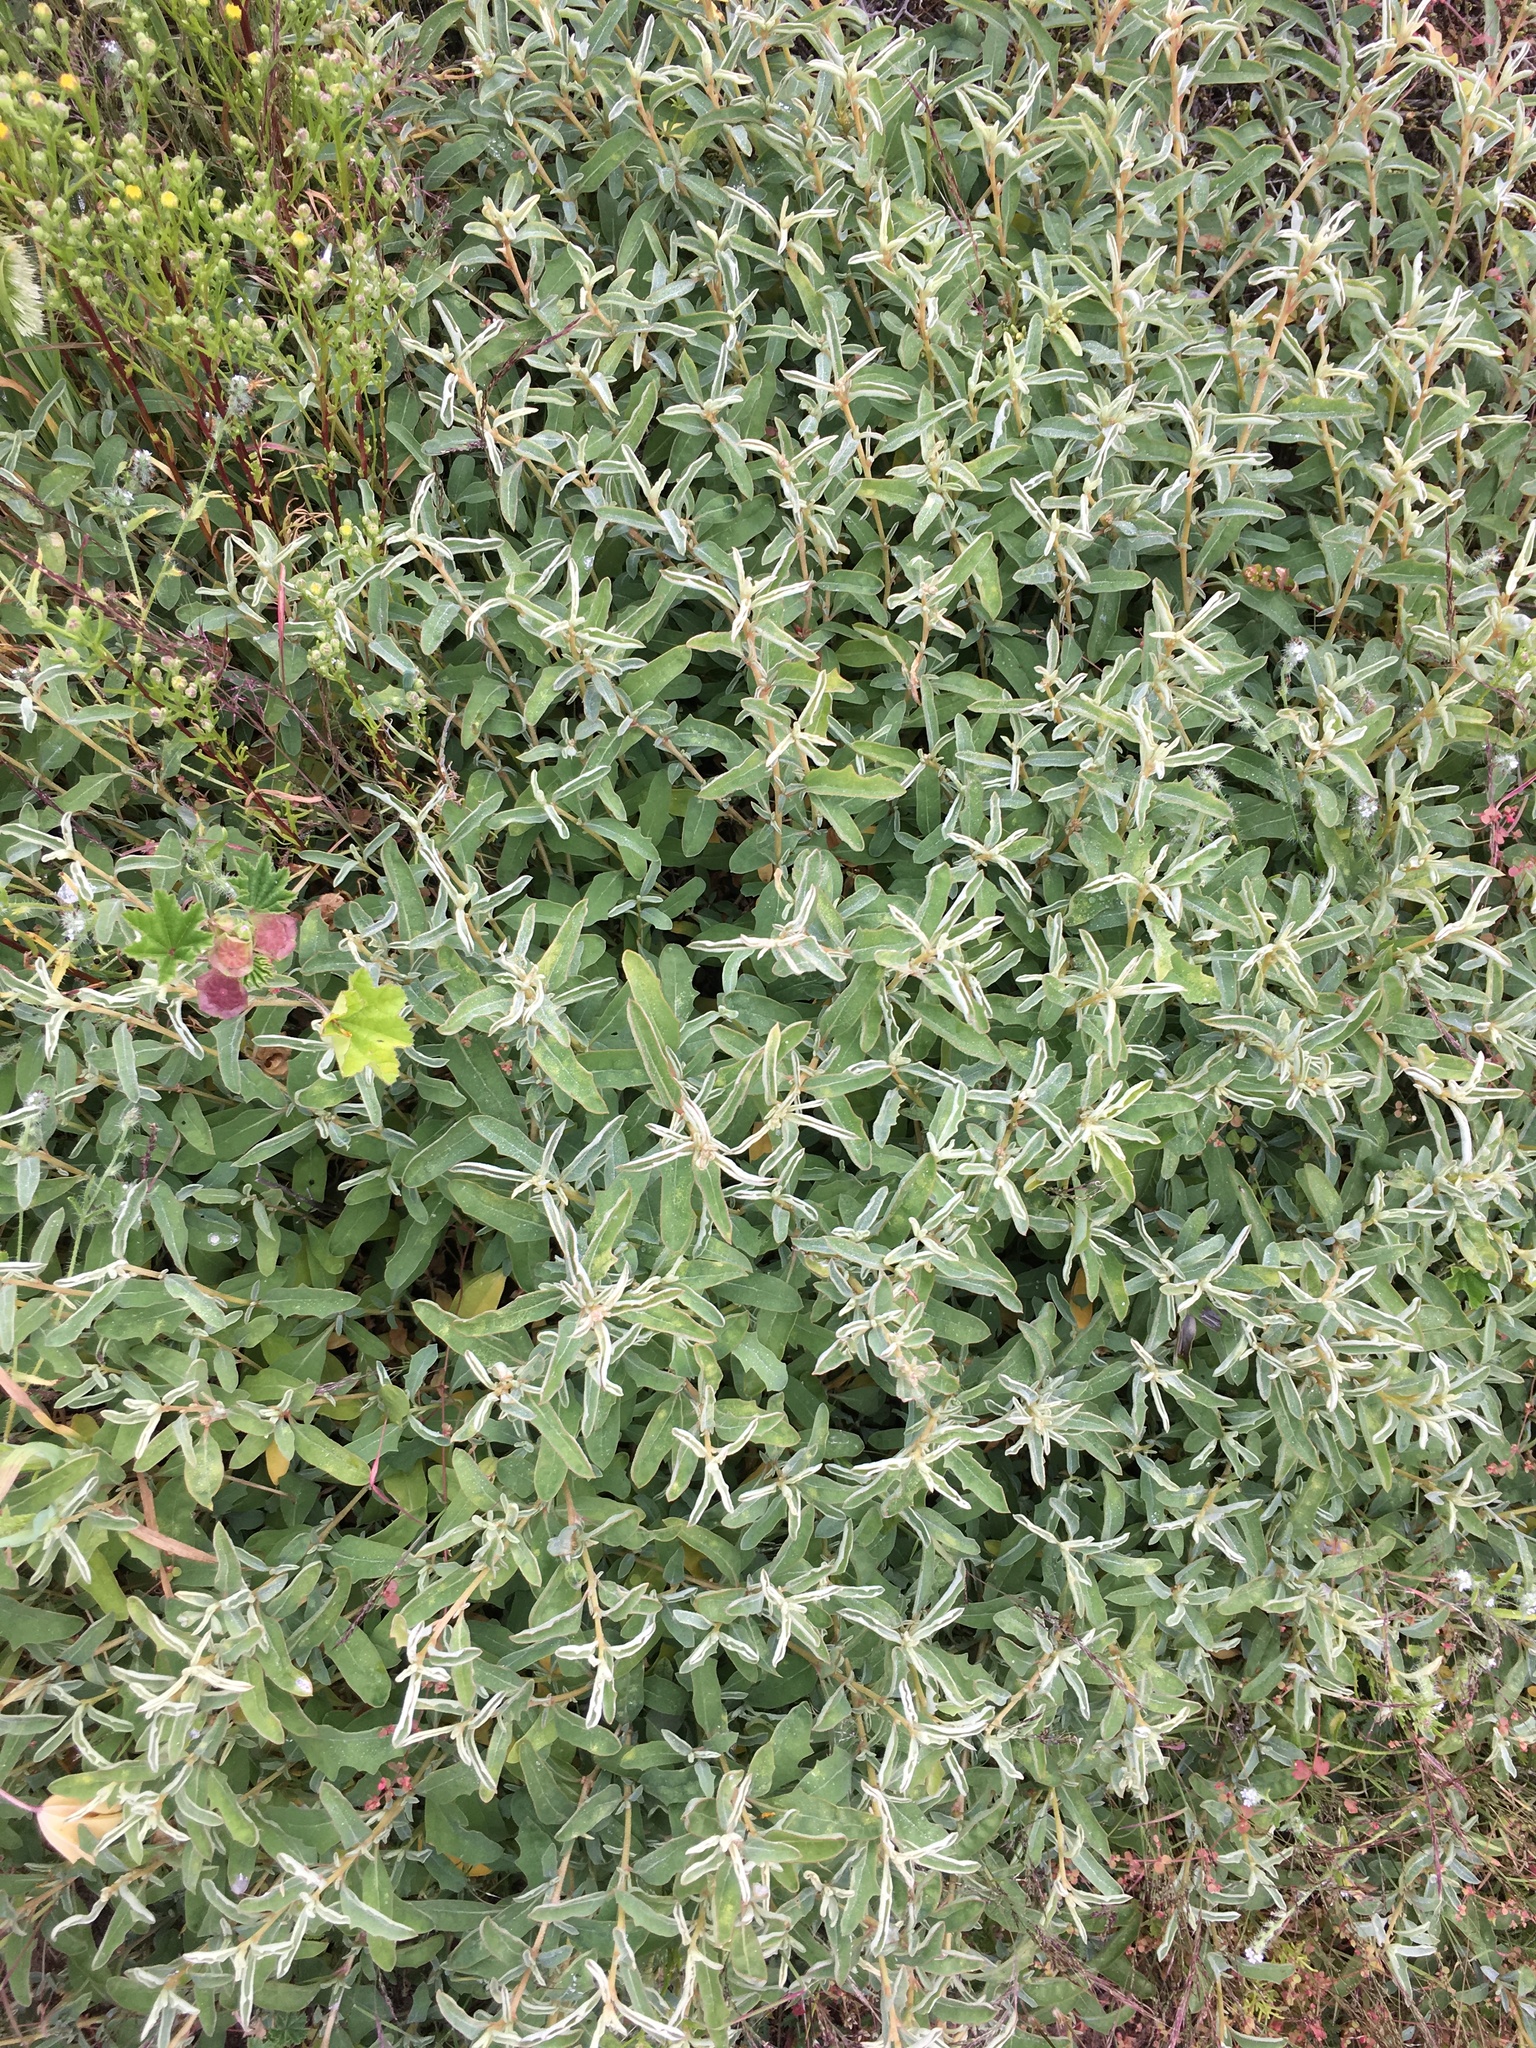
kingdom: Plantae
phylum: Tracheophyta
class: Magnoliopsida
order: Caryophyllales
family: Amaranthaceae
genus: Atriplex
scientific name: Atriplex semibaccata
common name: Australian saltbush
